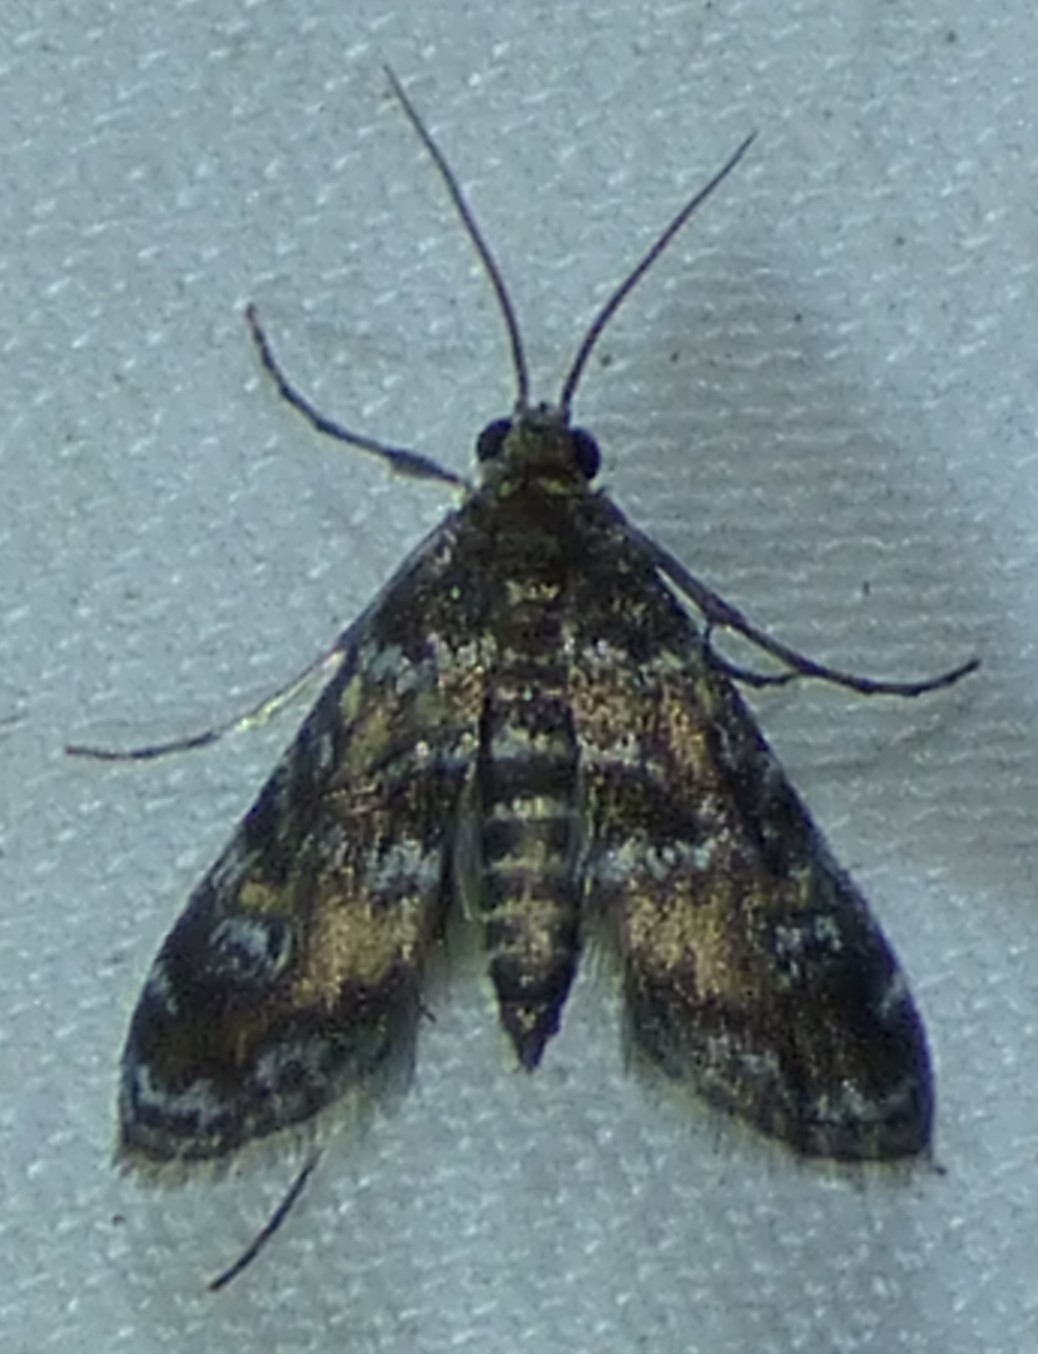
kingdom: Animalia
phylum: Arthropoda
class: Insecta
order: Lepidoptera
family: Crambidae
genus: Elophila
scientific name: Elophila obliteralis
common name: Waterlily leafcutter moth
